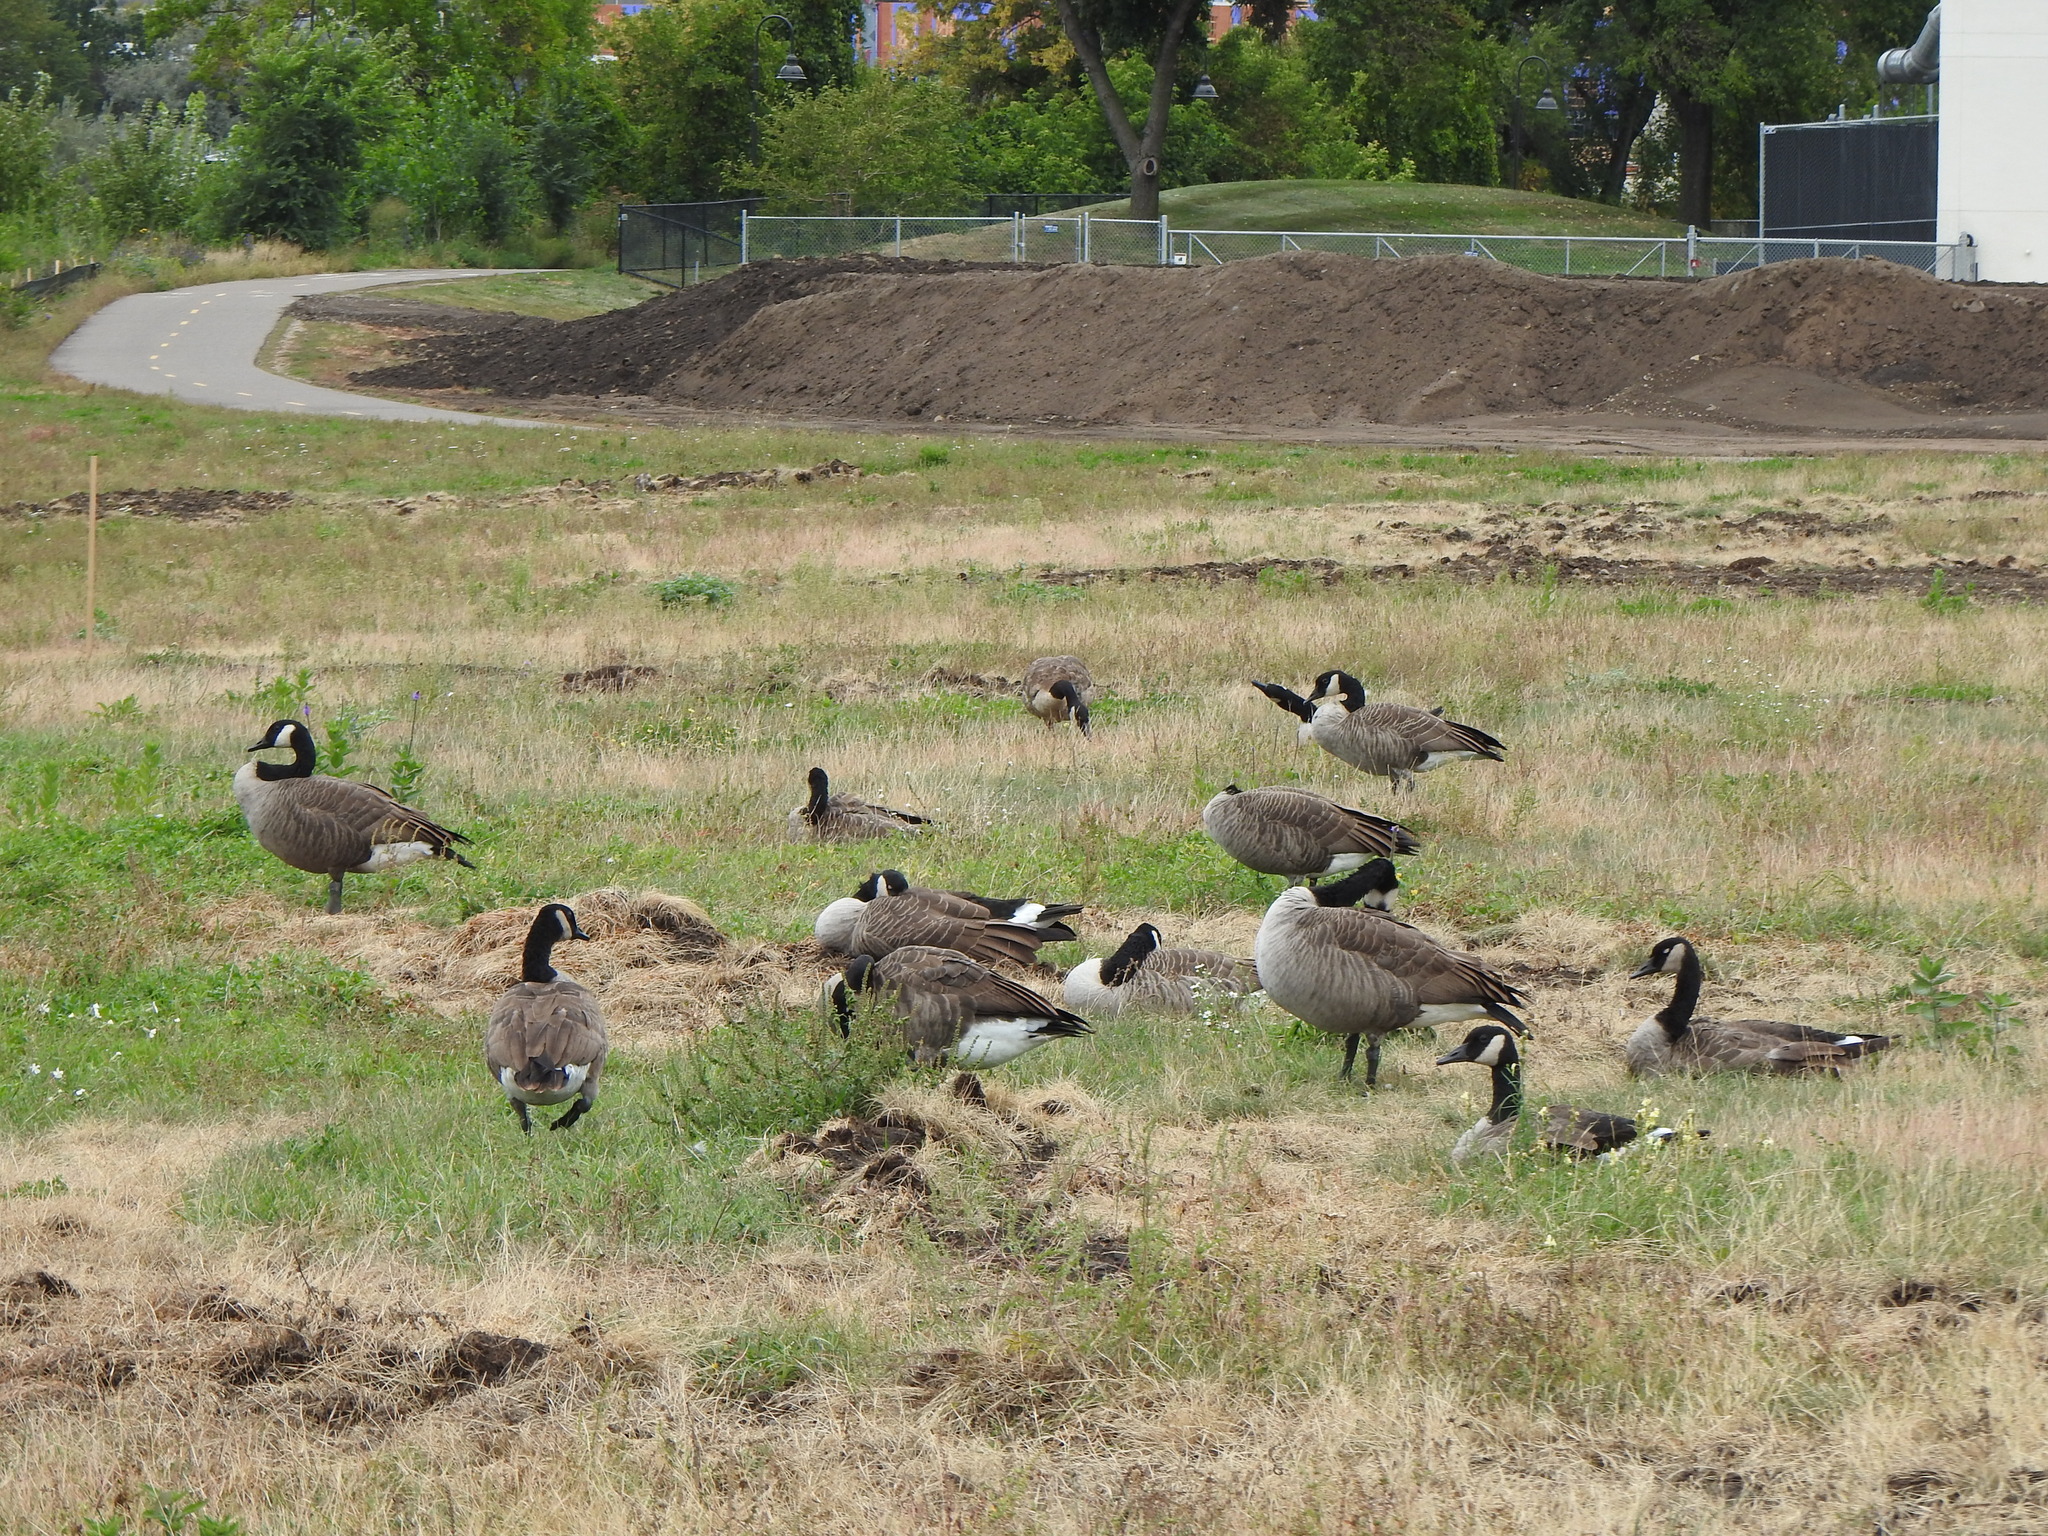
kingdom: Animalia
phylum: Chordata
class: Aves
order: Anseriformes
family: Anatidae
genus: Branta
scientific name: Branta canadensis
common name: Canada goose
